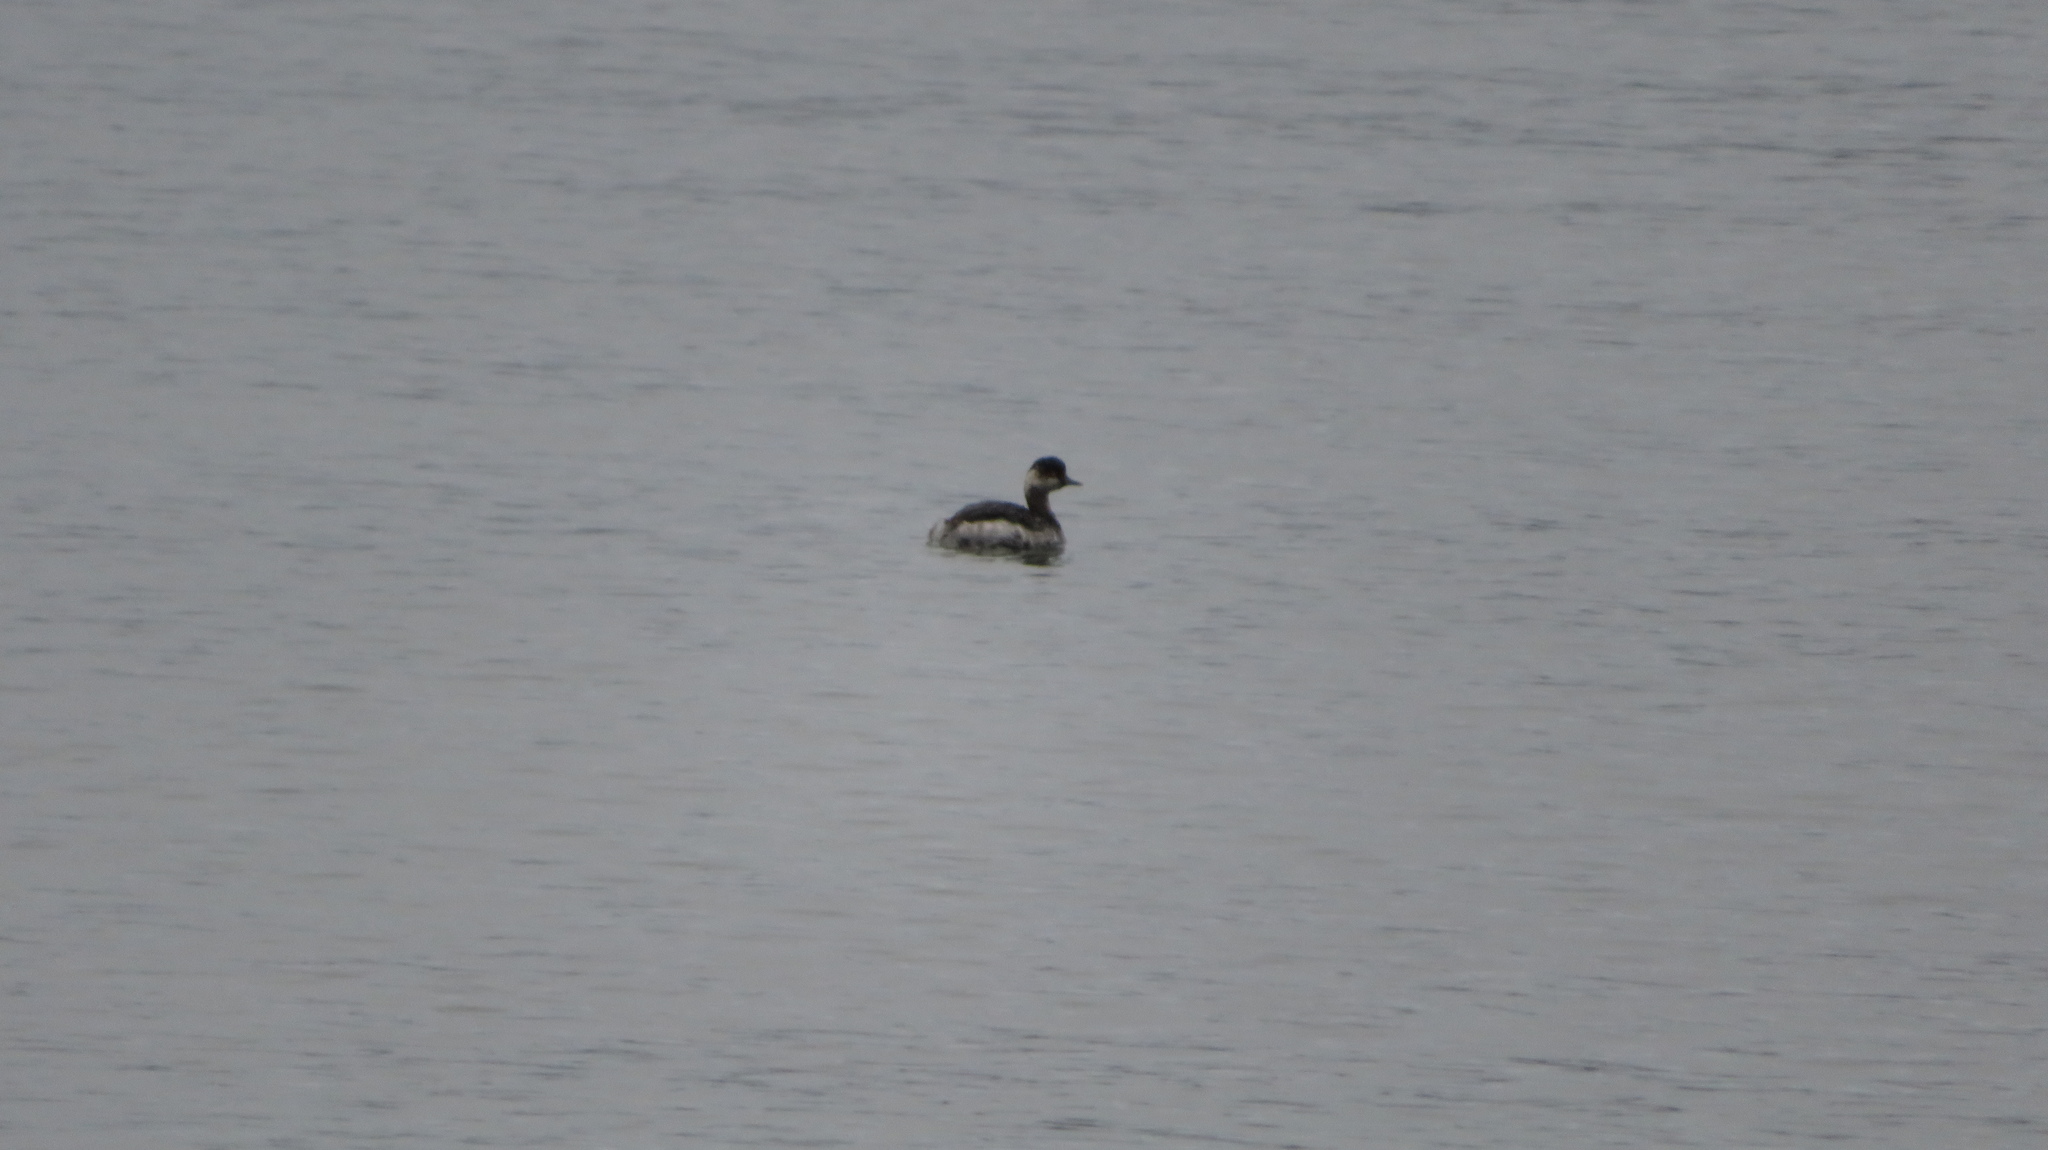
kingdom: Animalia
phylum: Chordata
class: Aves
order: Podicipediformes
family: Podicipedidae
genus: Podiceps
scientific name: Podiceps nigricollis
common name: Black-necked grebe
